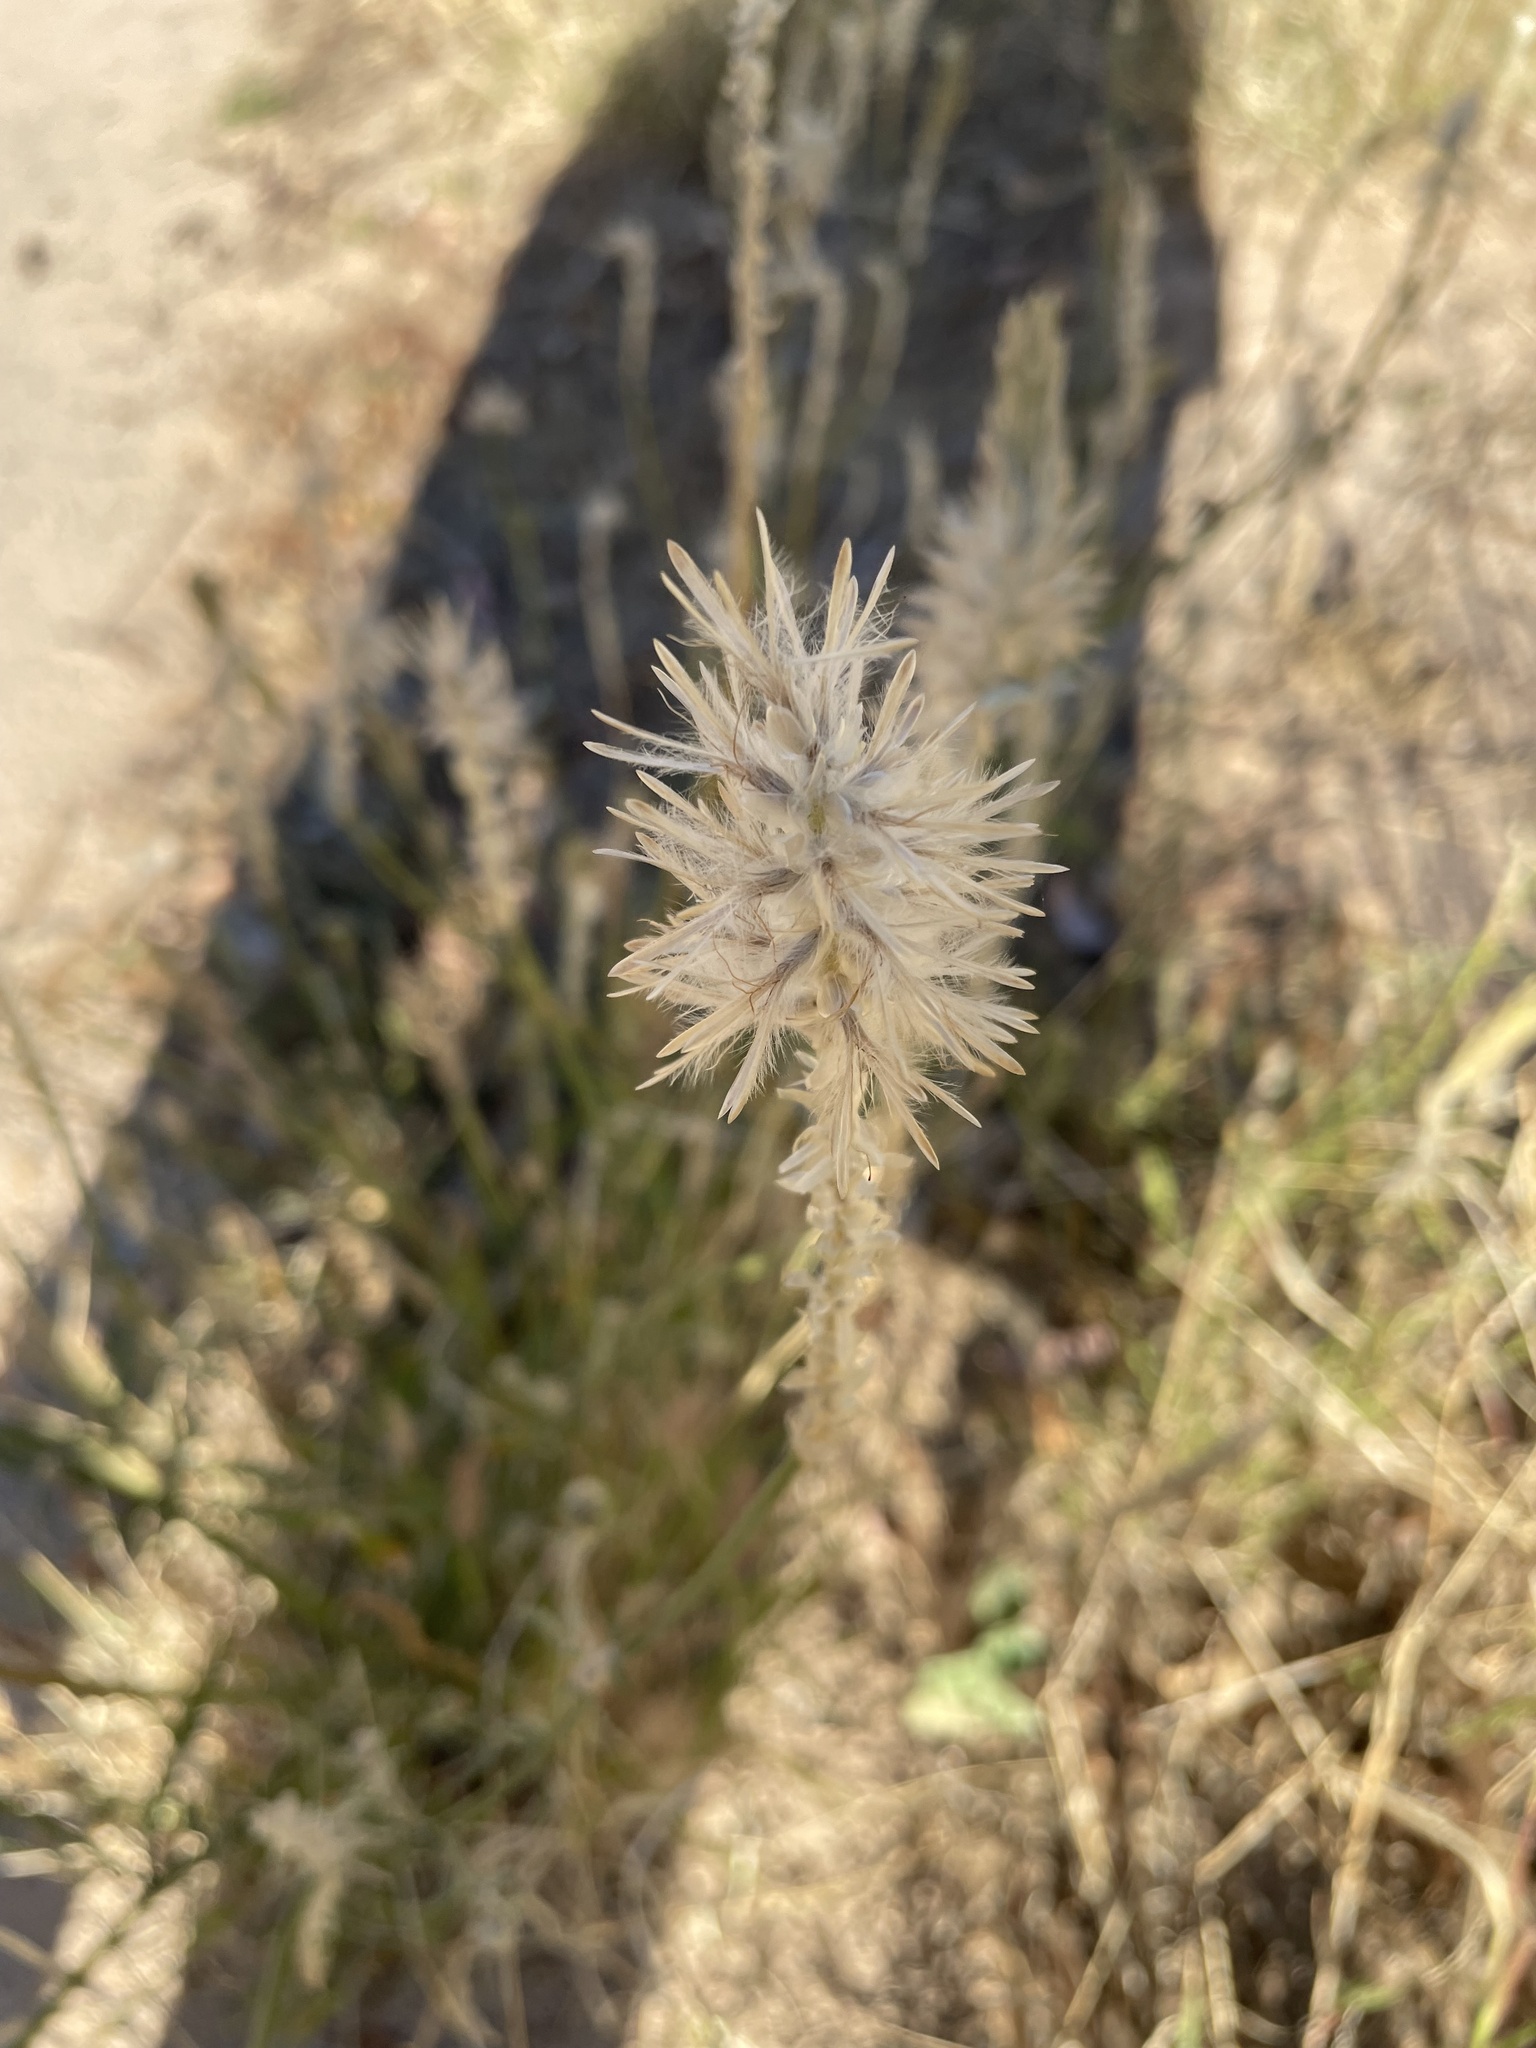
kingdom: Plantae
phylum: Tracheophyta
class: Magnoliopsida
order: Caryophyllales
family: Amaranthaceae
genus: Ptilotus
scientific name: Ptilotus polystachyus
